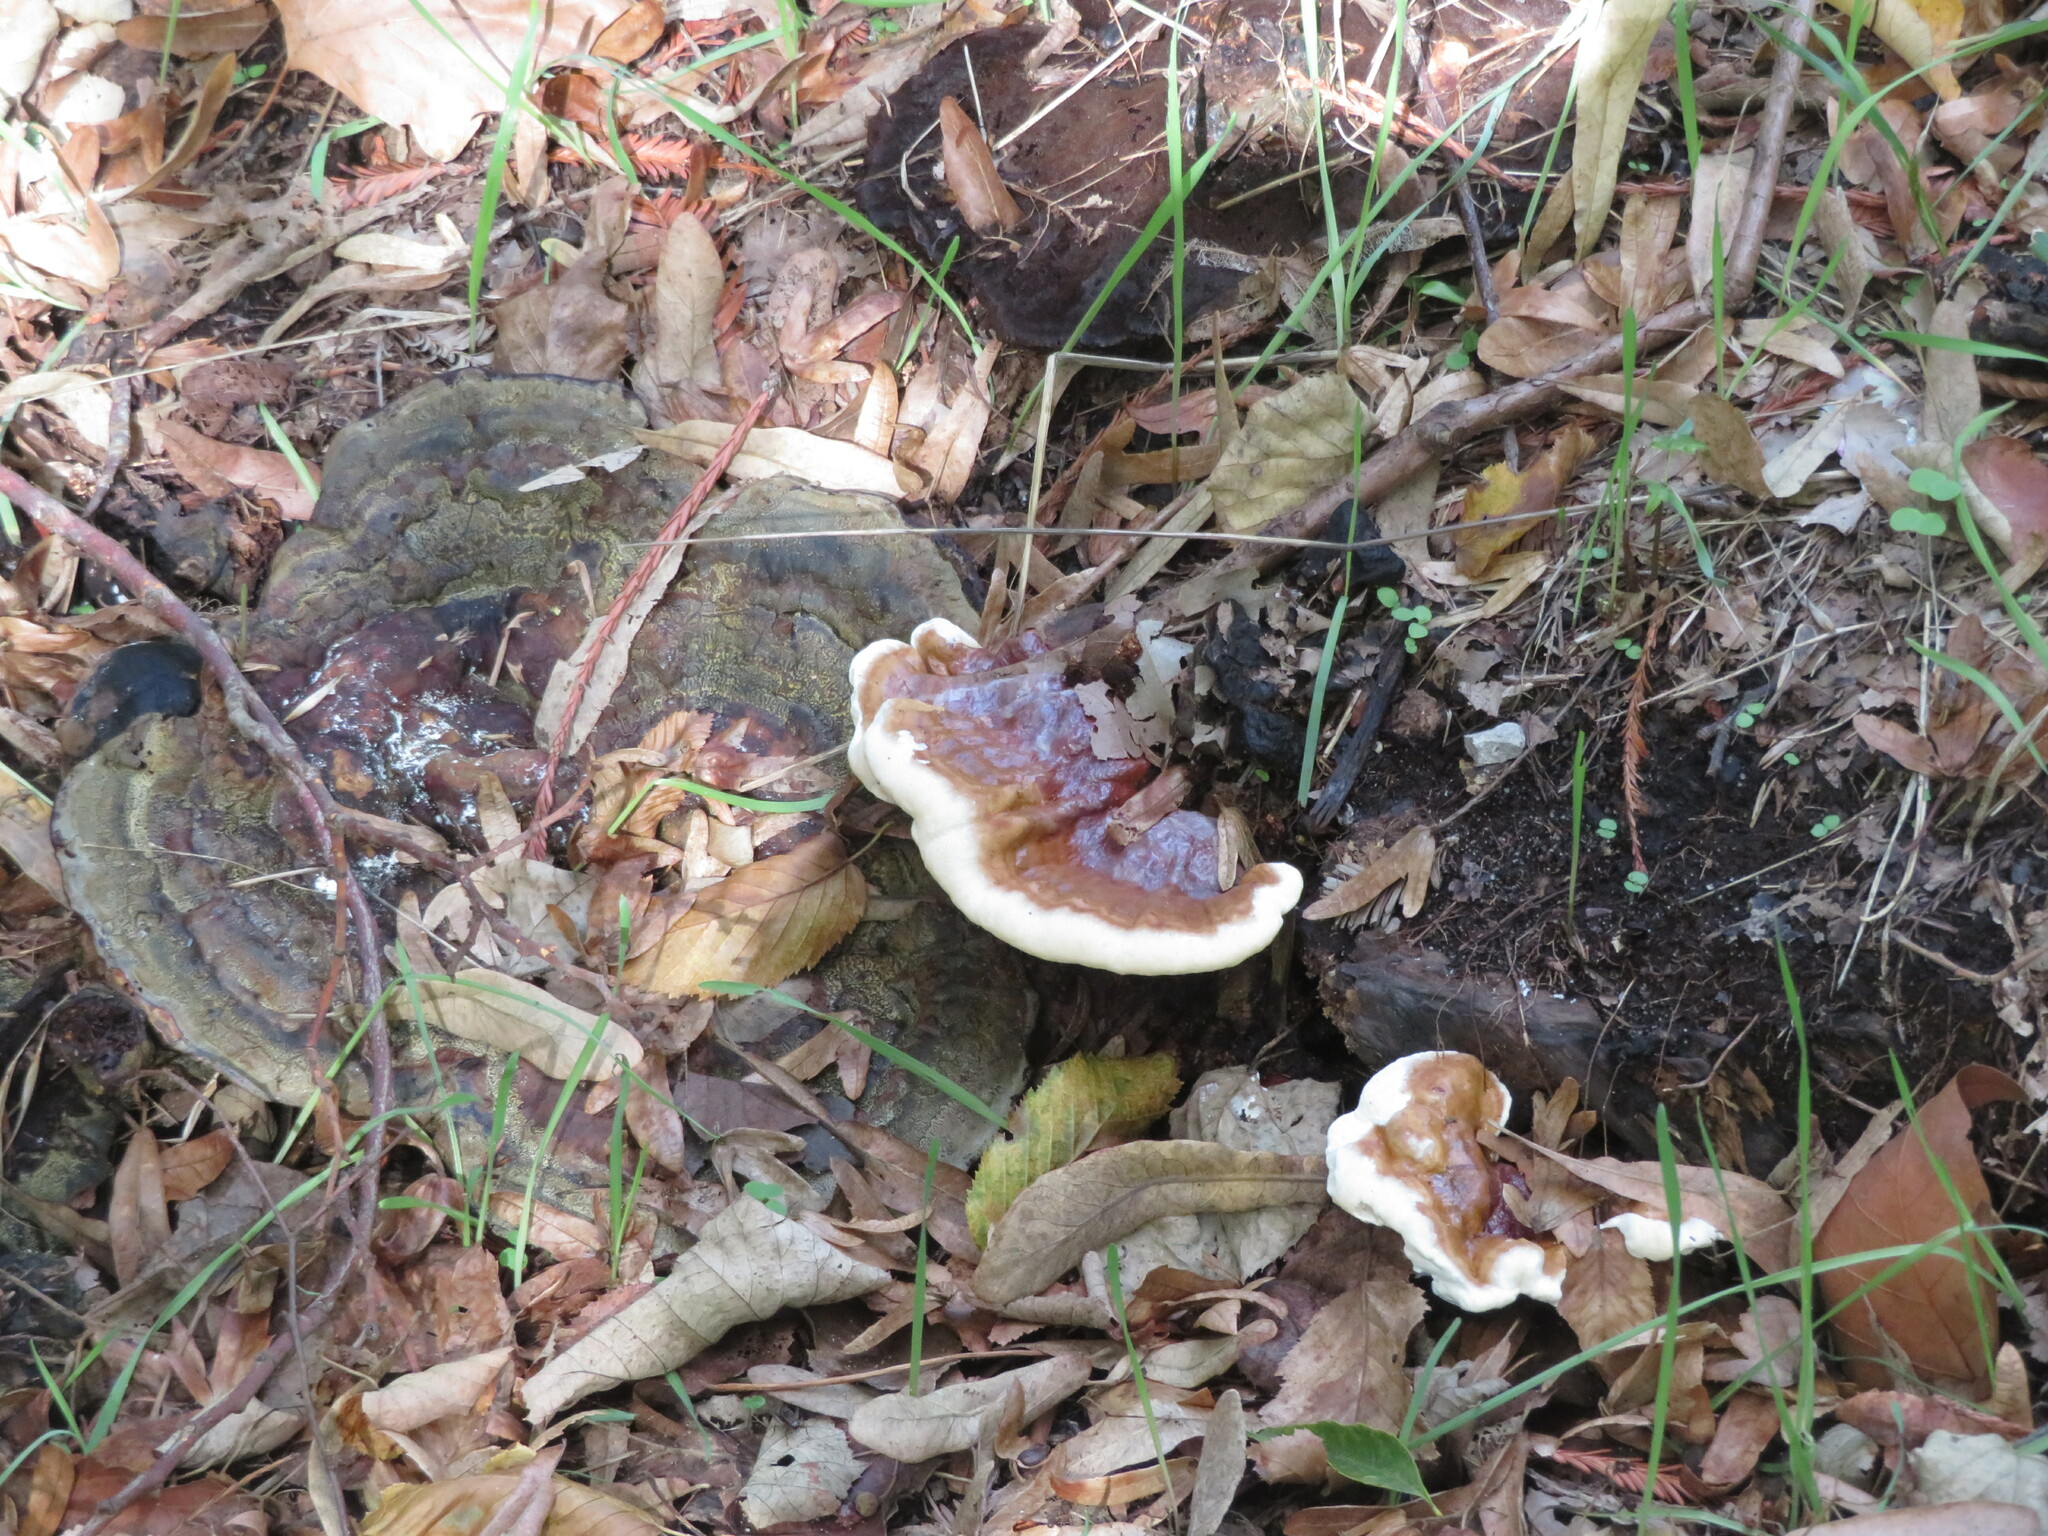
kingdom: Fungi
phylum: Basidiomycota
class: Agaricomycetes
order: Polyporales
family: Polyporaceae
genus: Ganoderma
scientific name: Ganoderma resinaceum
